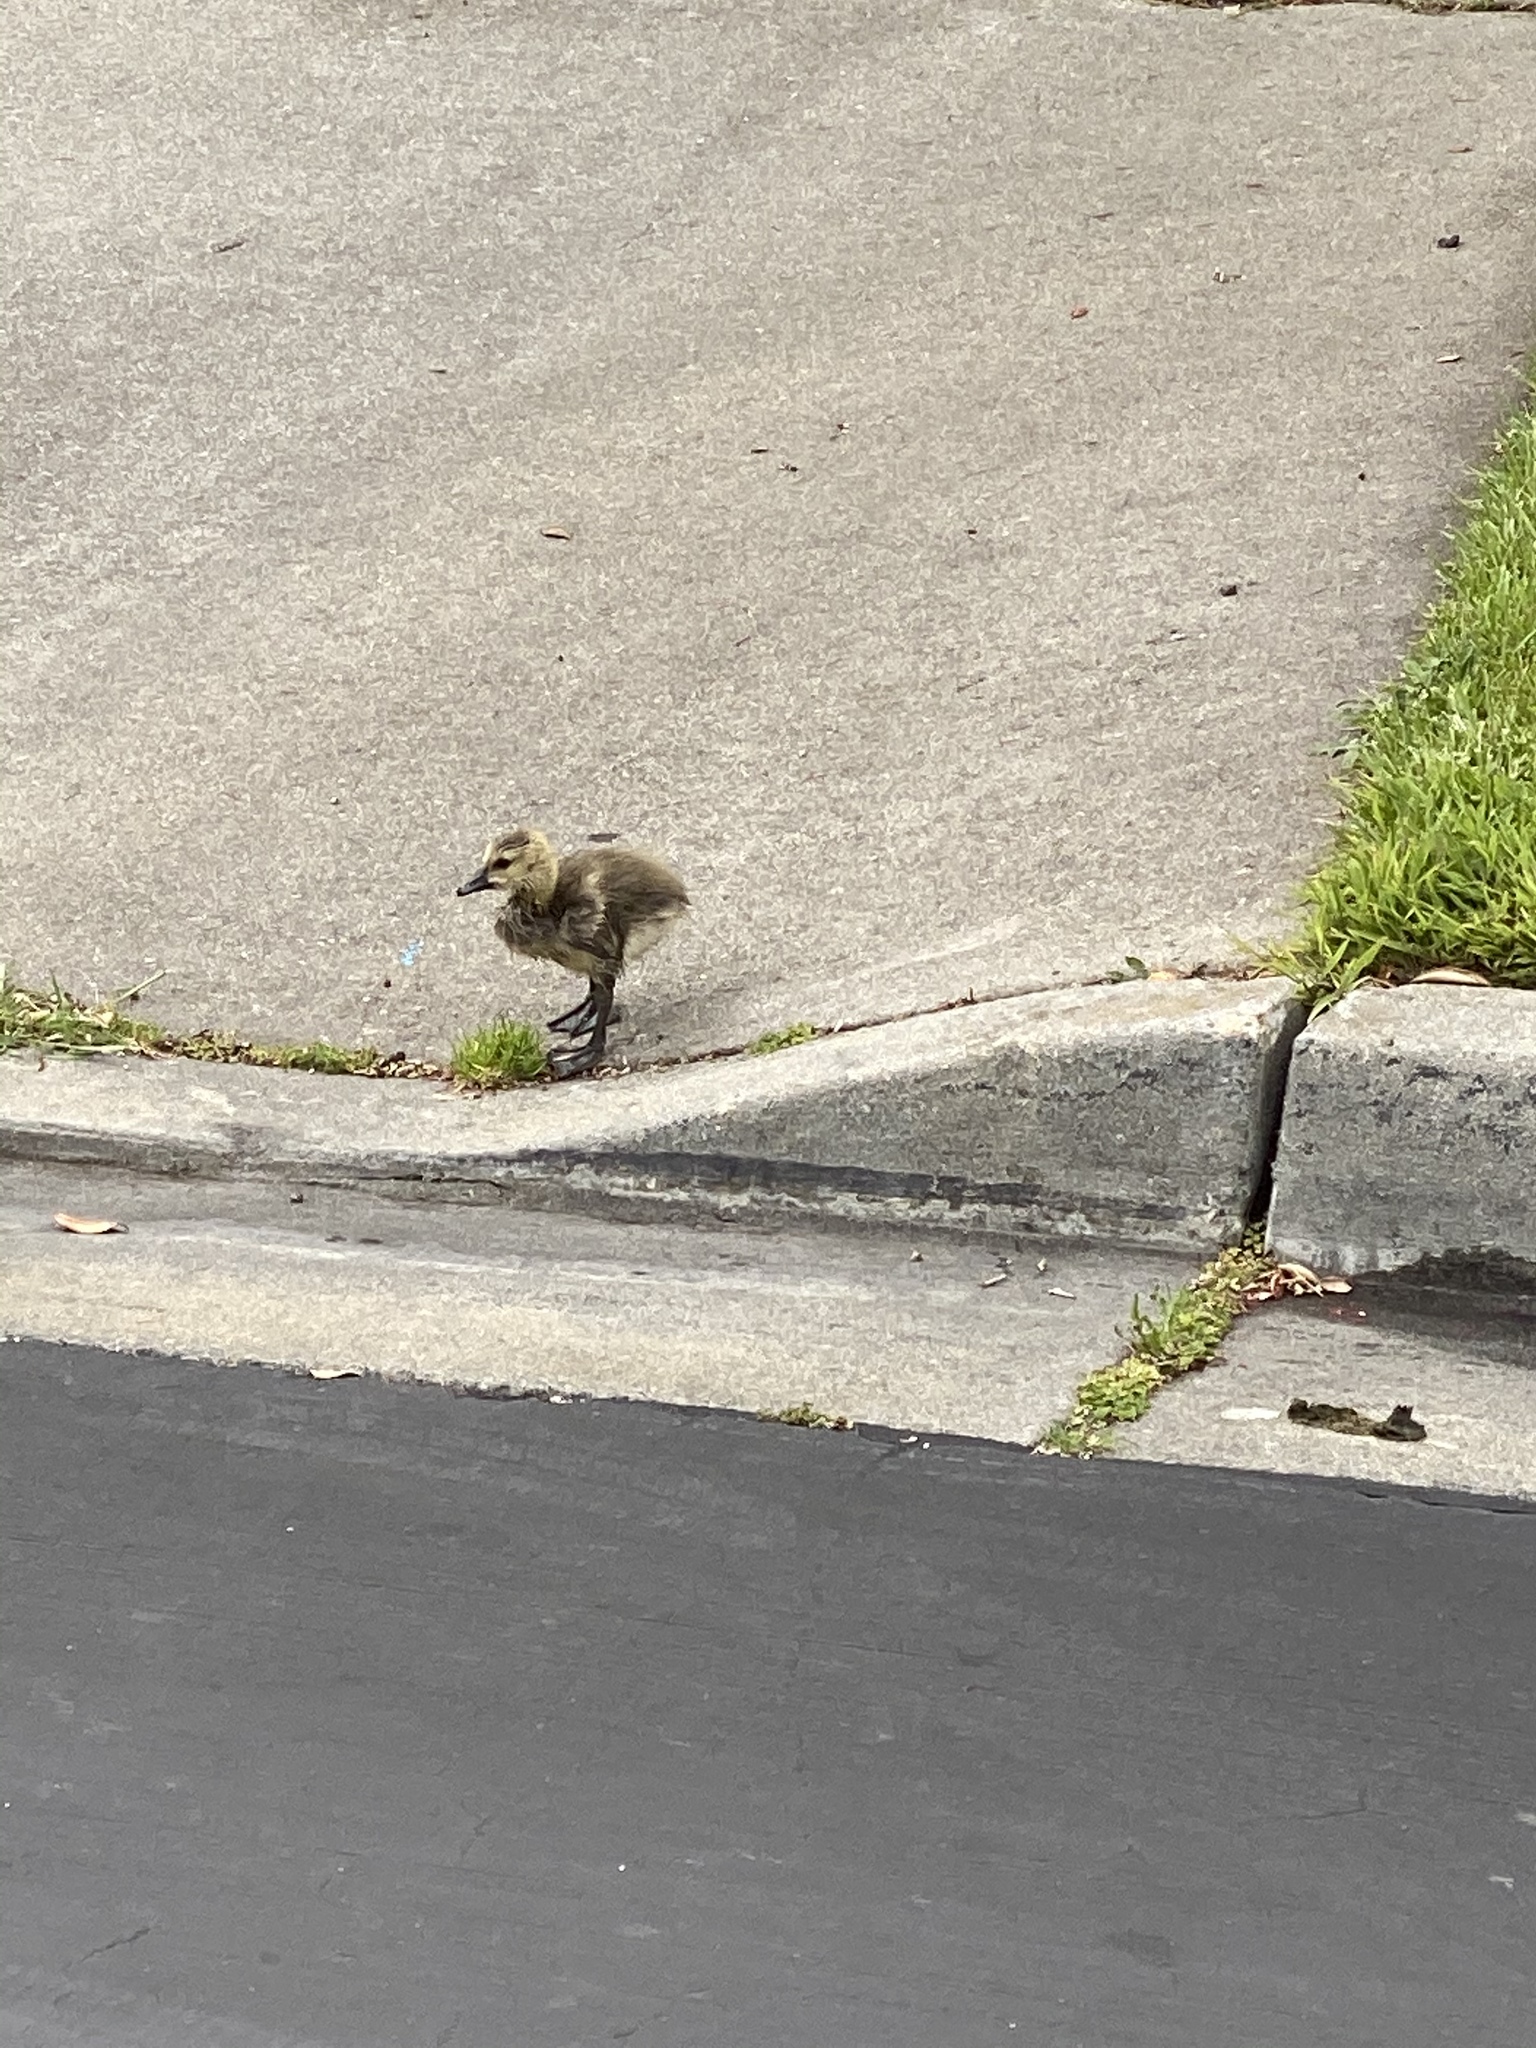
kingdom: Animalia
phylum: Chordata
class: Aves
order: Anseriformes
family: Anatidae
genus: Branta
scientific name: Branta canadensis
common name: Canada goose
